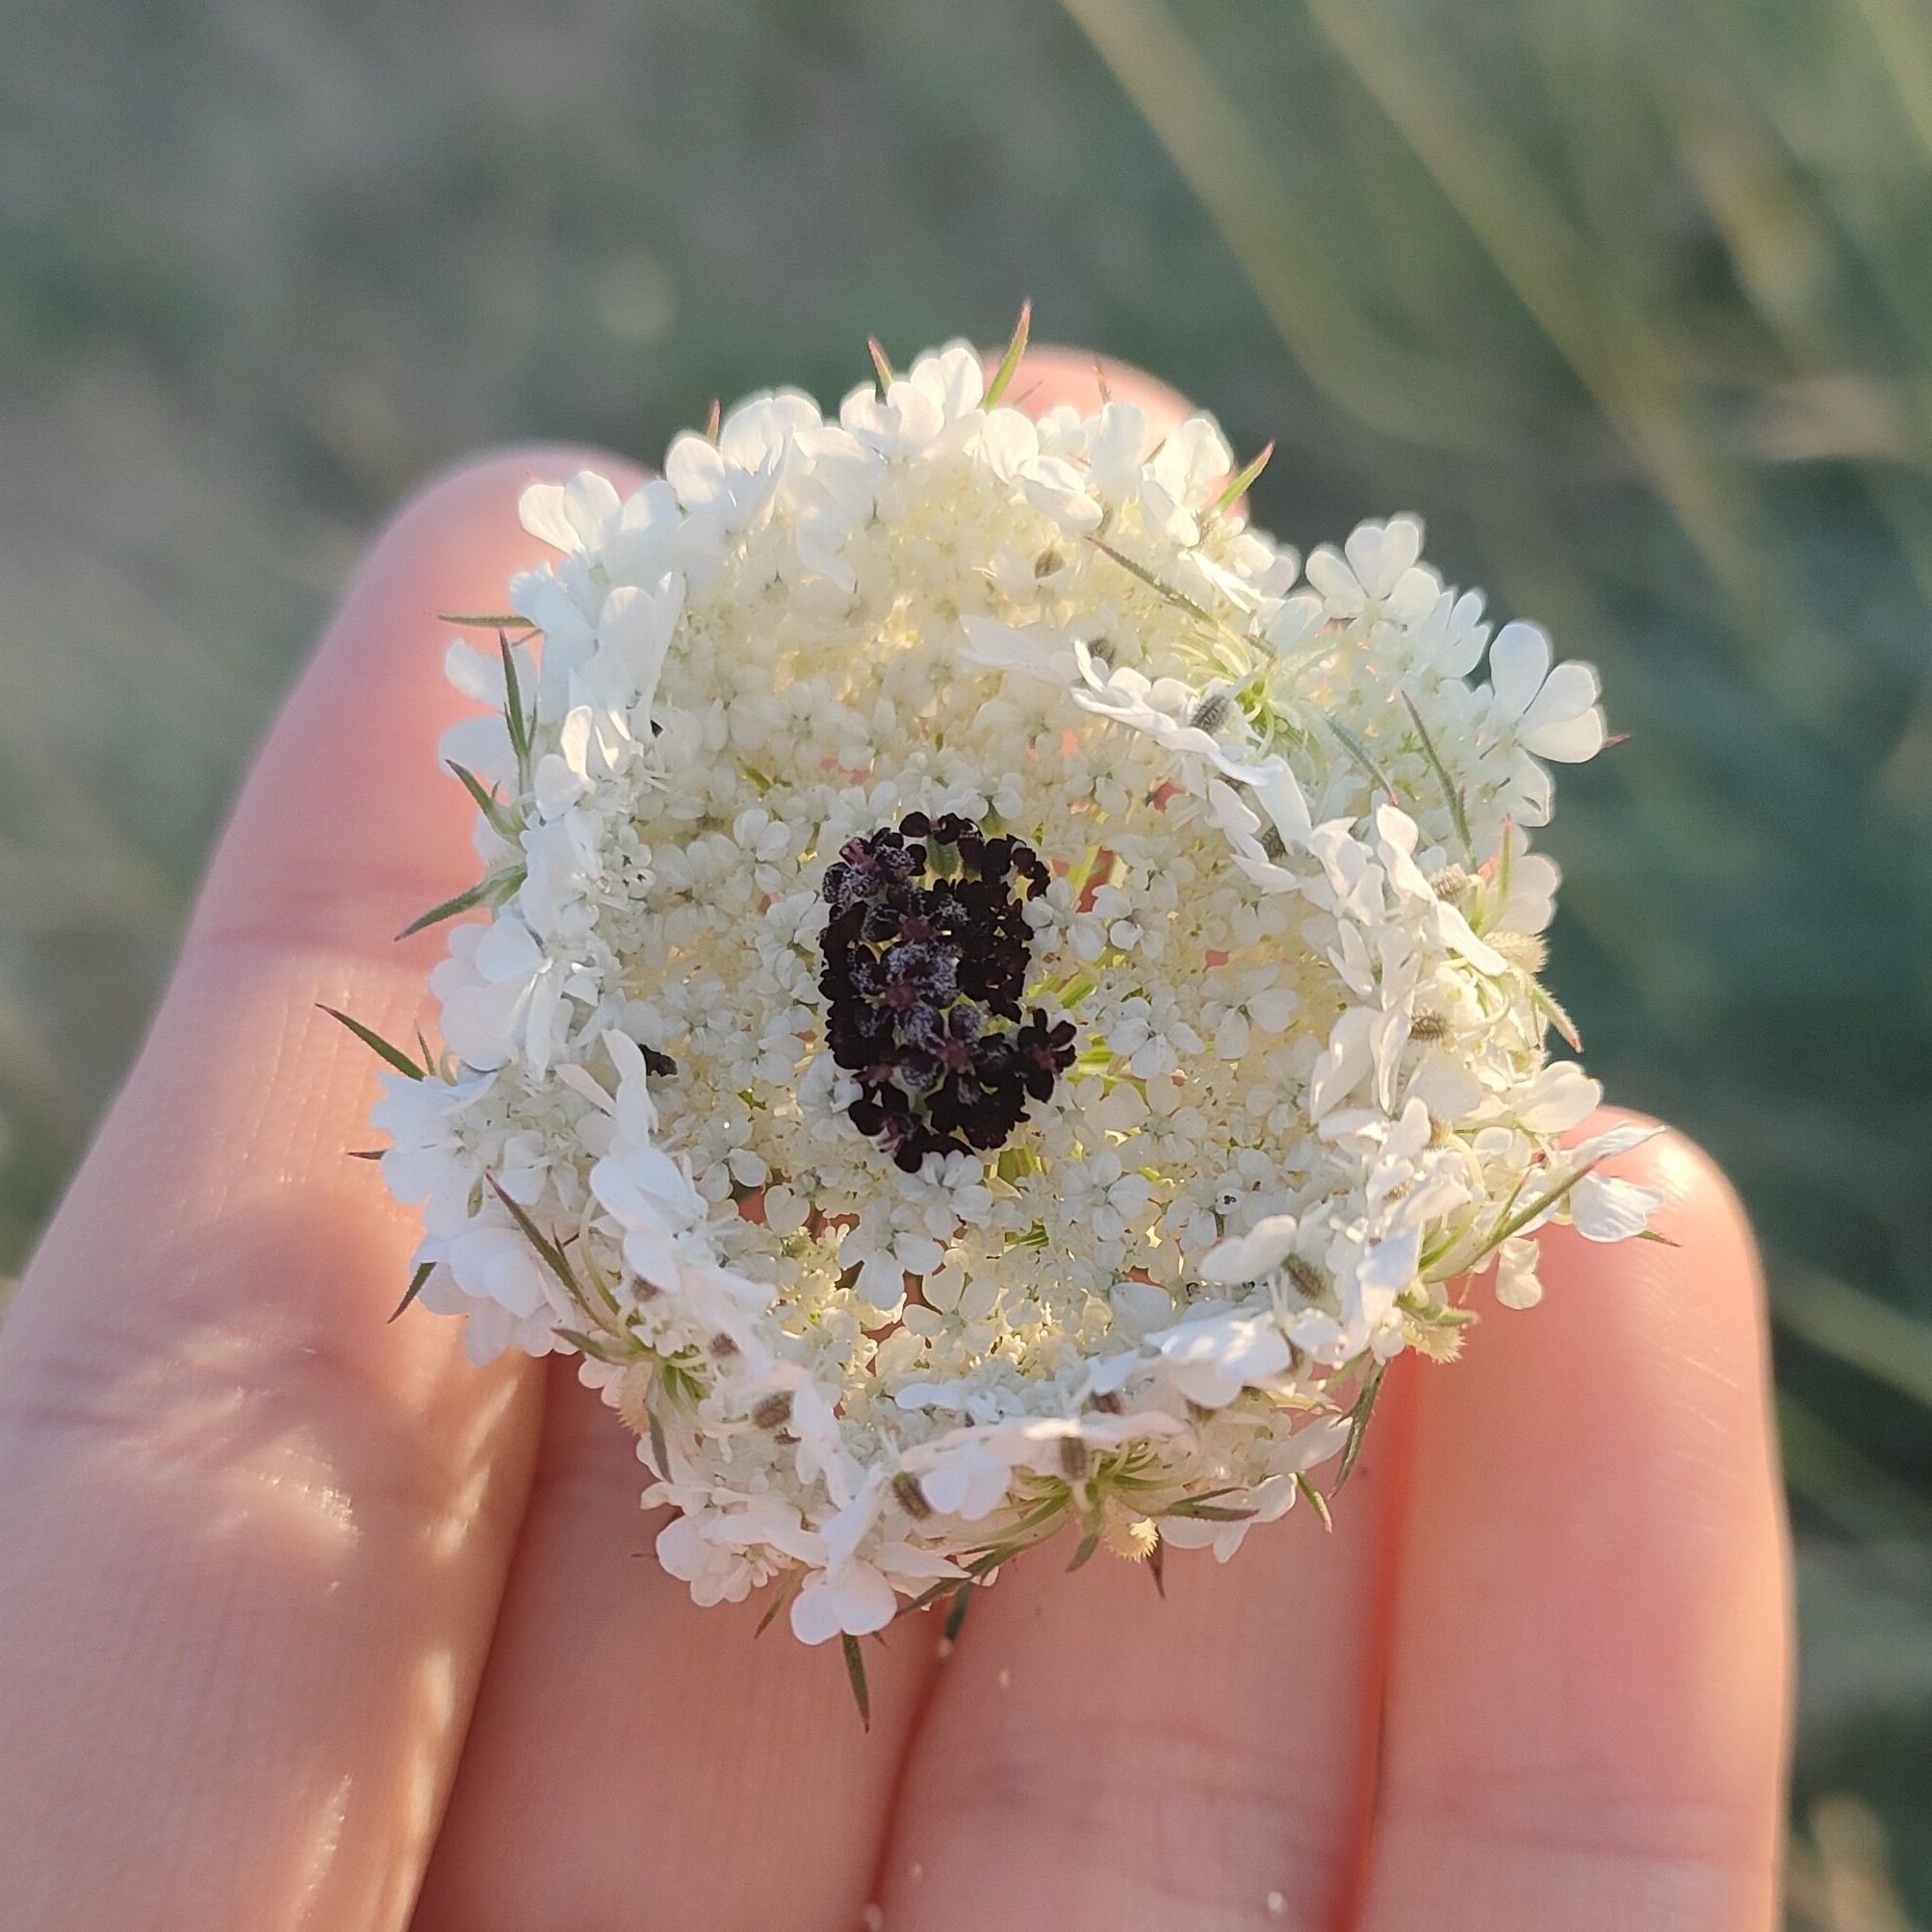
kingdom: Plantae
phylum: Tracheophyta
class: Magnoliopsida
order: Apiales
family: Apiaceae
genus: Daucus
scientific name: Daucus carota
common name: Wild carrot
